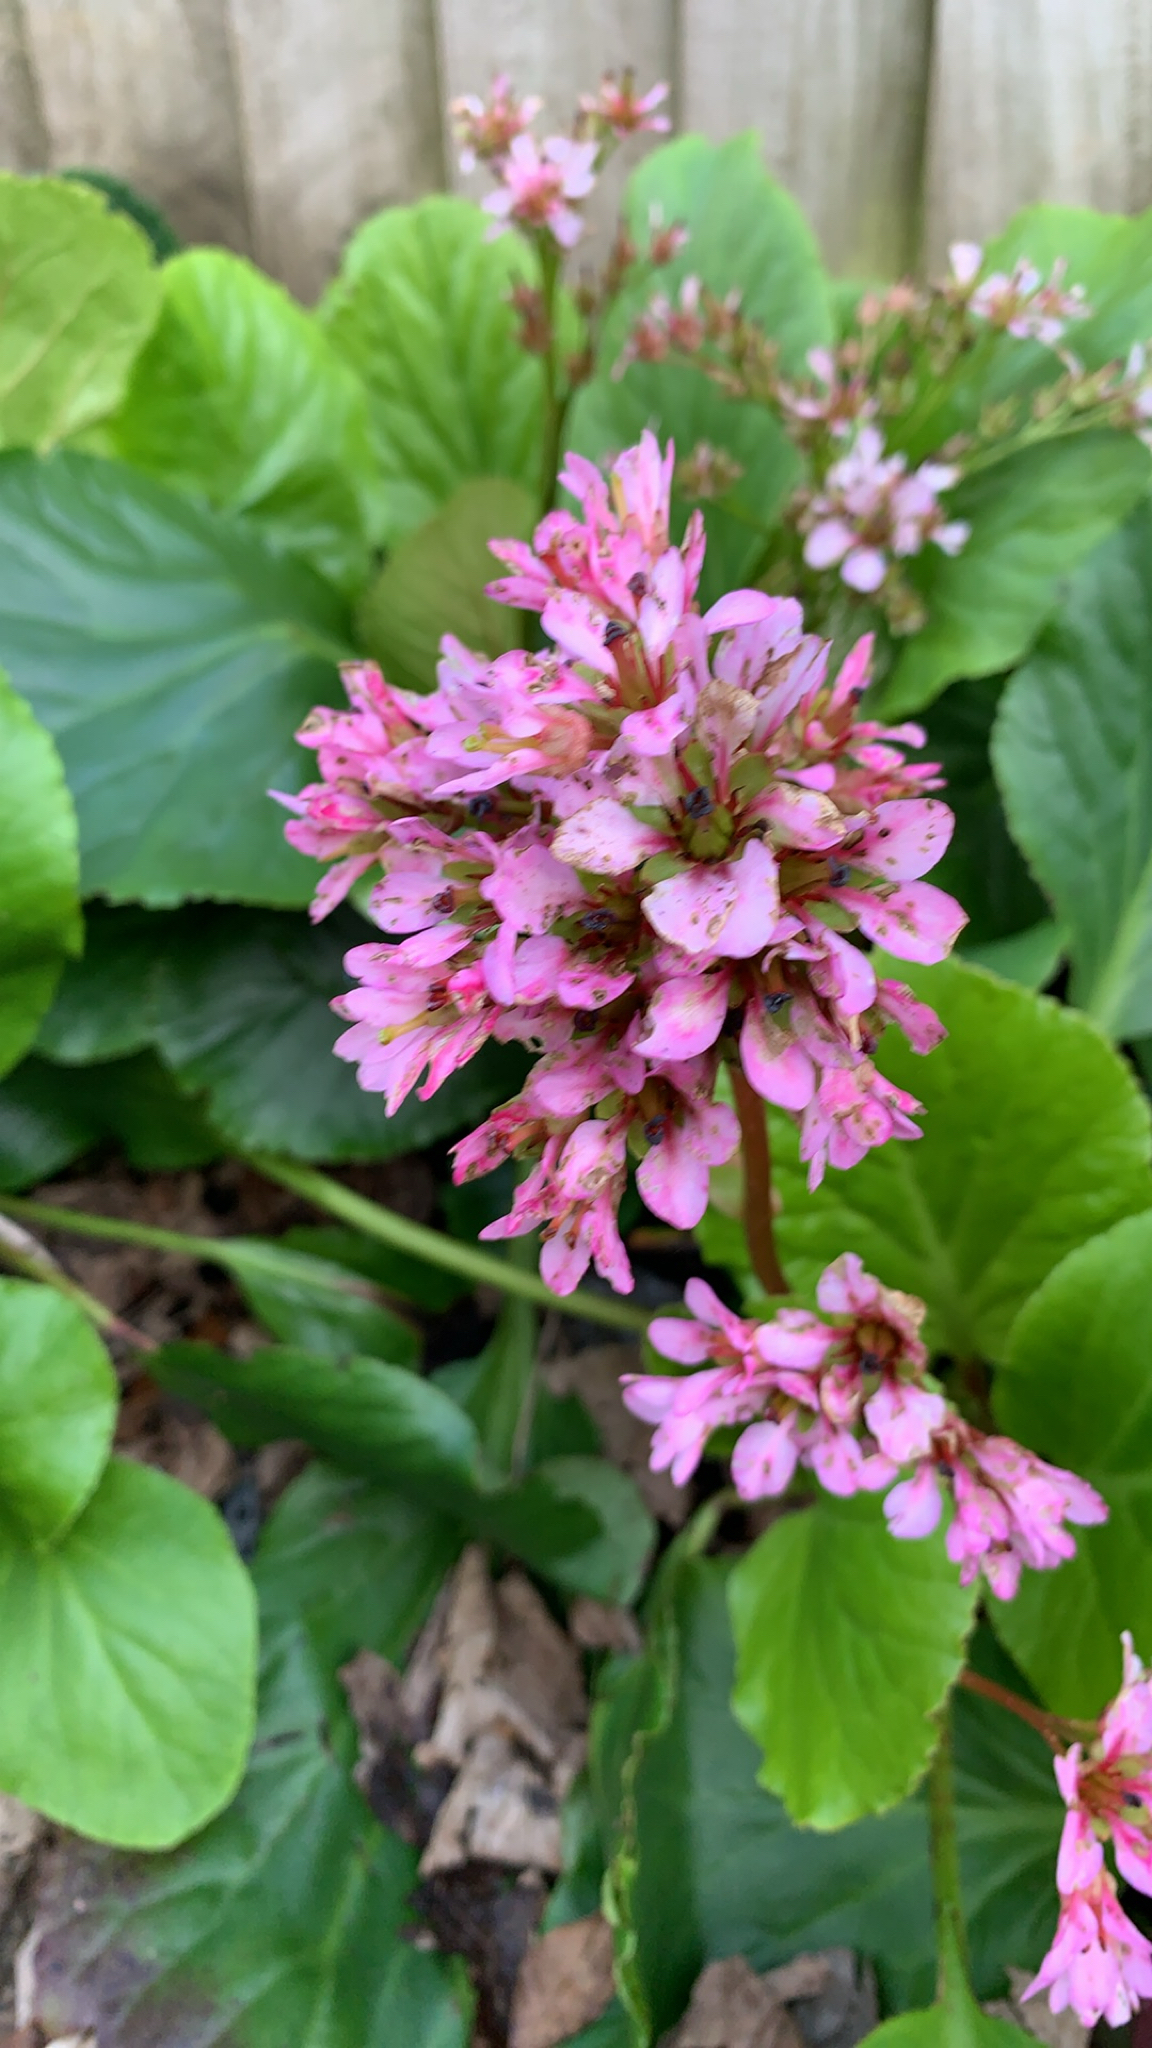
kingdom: Plantae
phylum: Tracheophyta
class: Magnoliopsida
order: Saxifragales
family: Saxifragaceae
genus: Bergenia
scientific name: Bergenia crassifolia
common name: Elephant-ears
